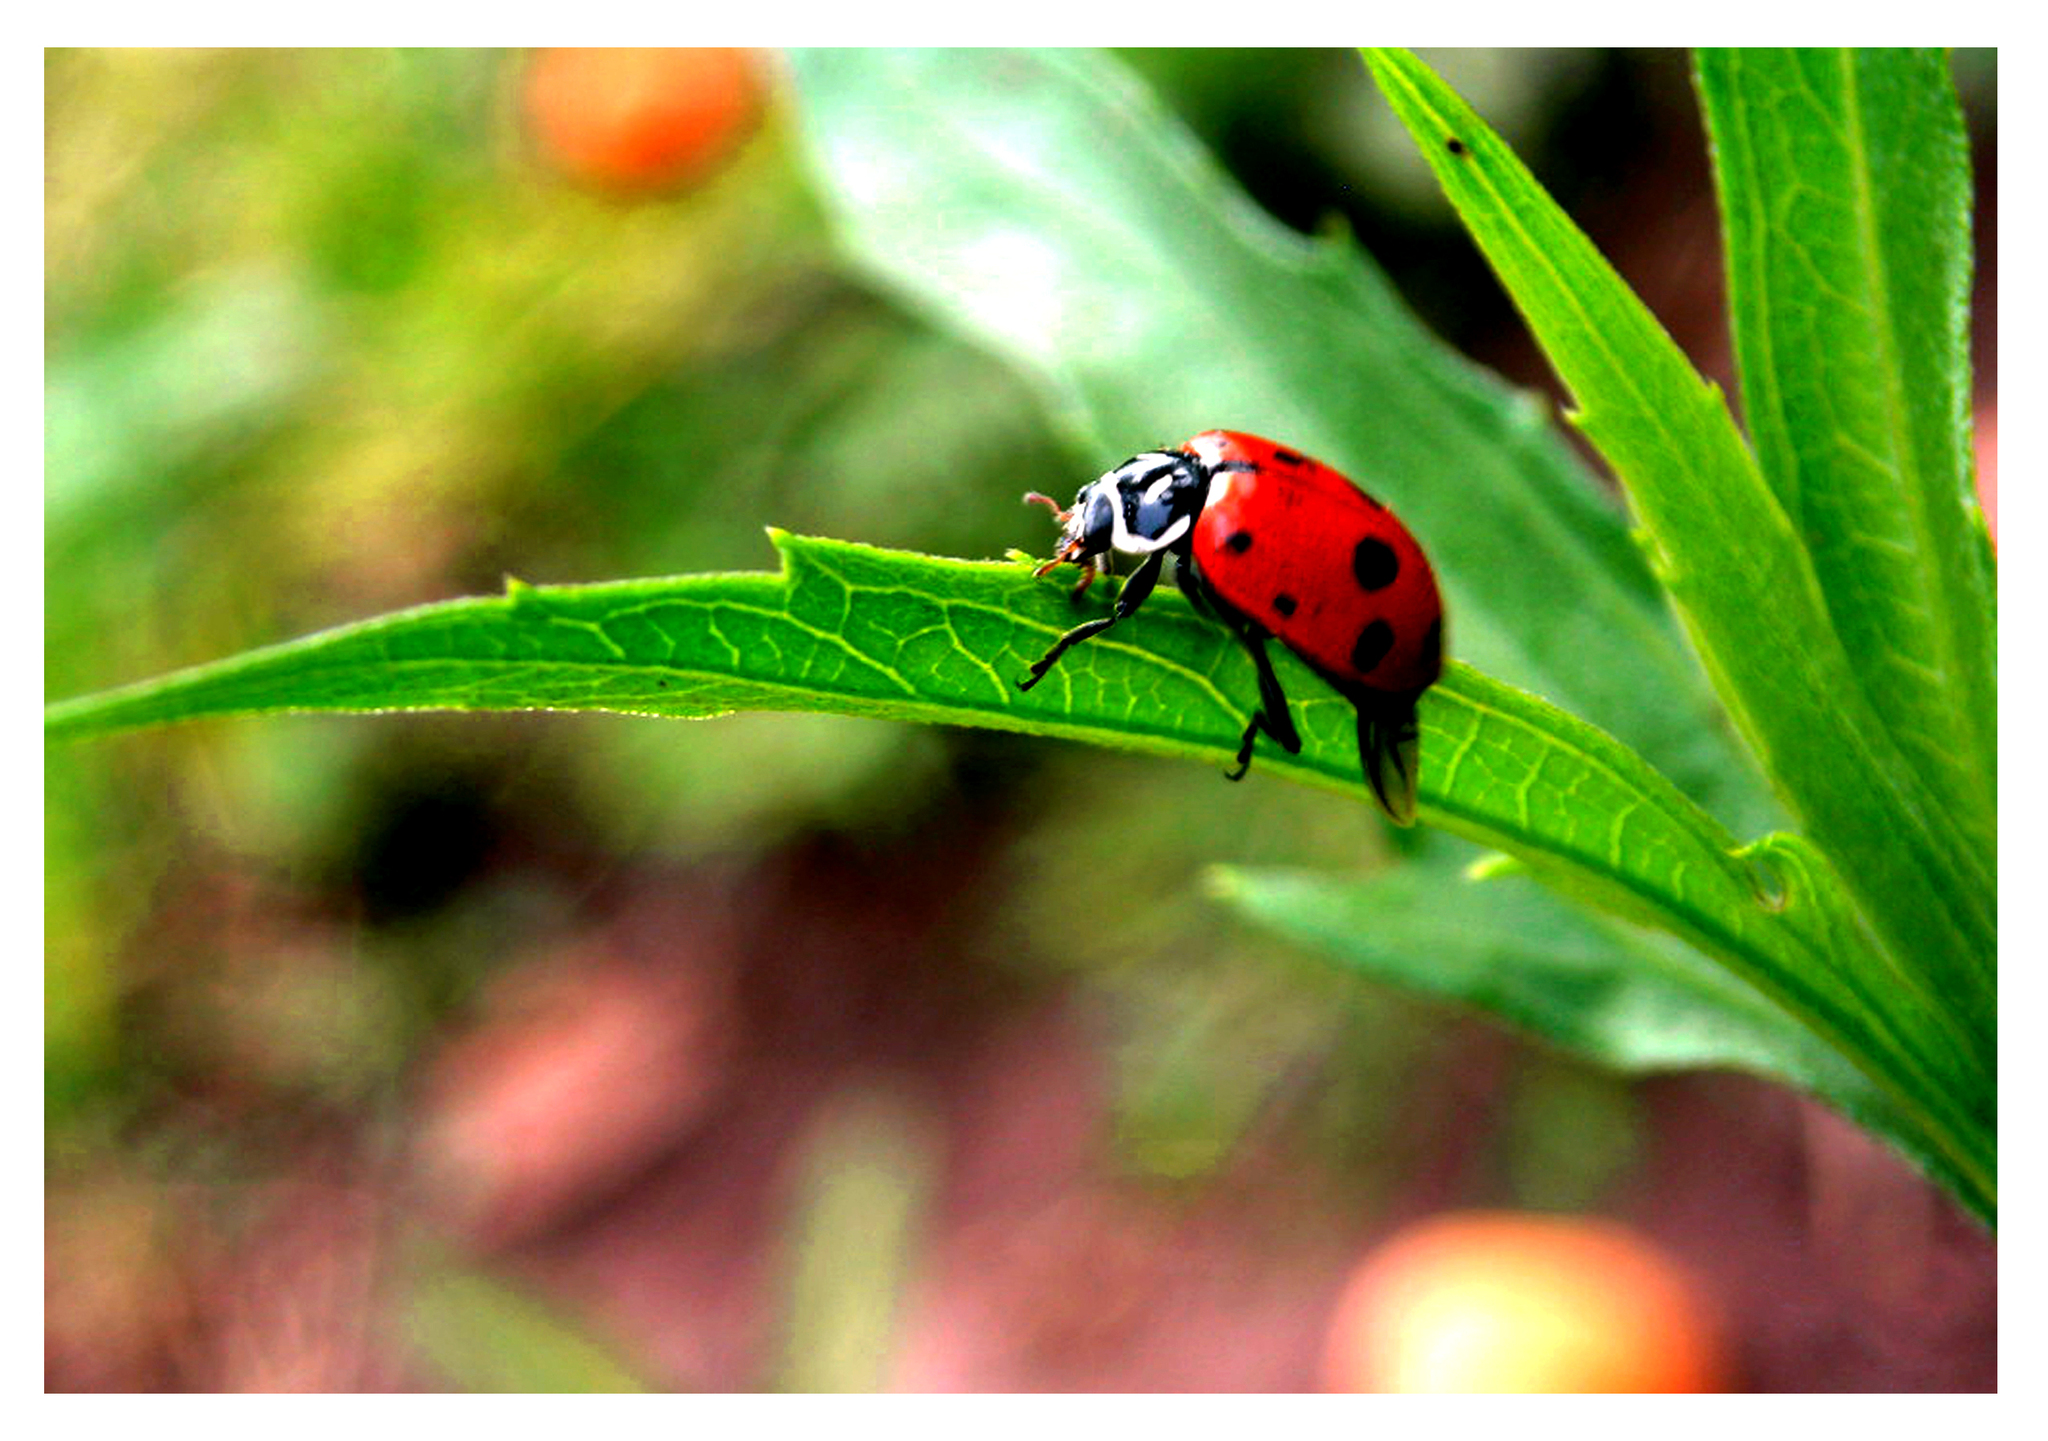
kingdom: Animalia
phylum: Arthropoda
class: Insecta
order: Coleoptera
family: Coccinellidae
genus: Hippodamia
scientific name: Hippodamia convergens
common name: Convergent lady beetle
